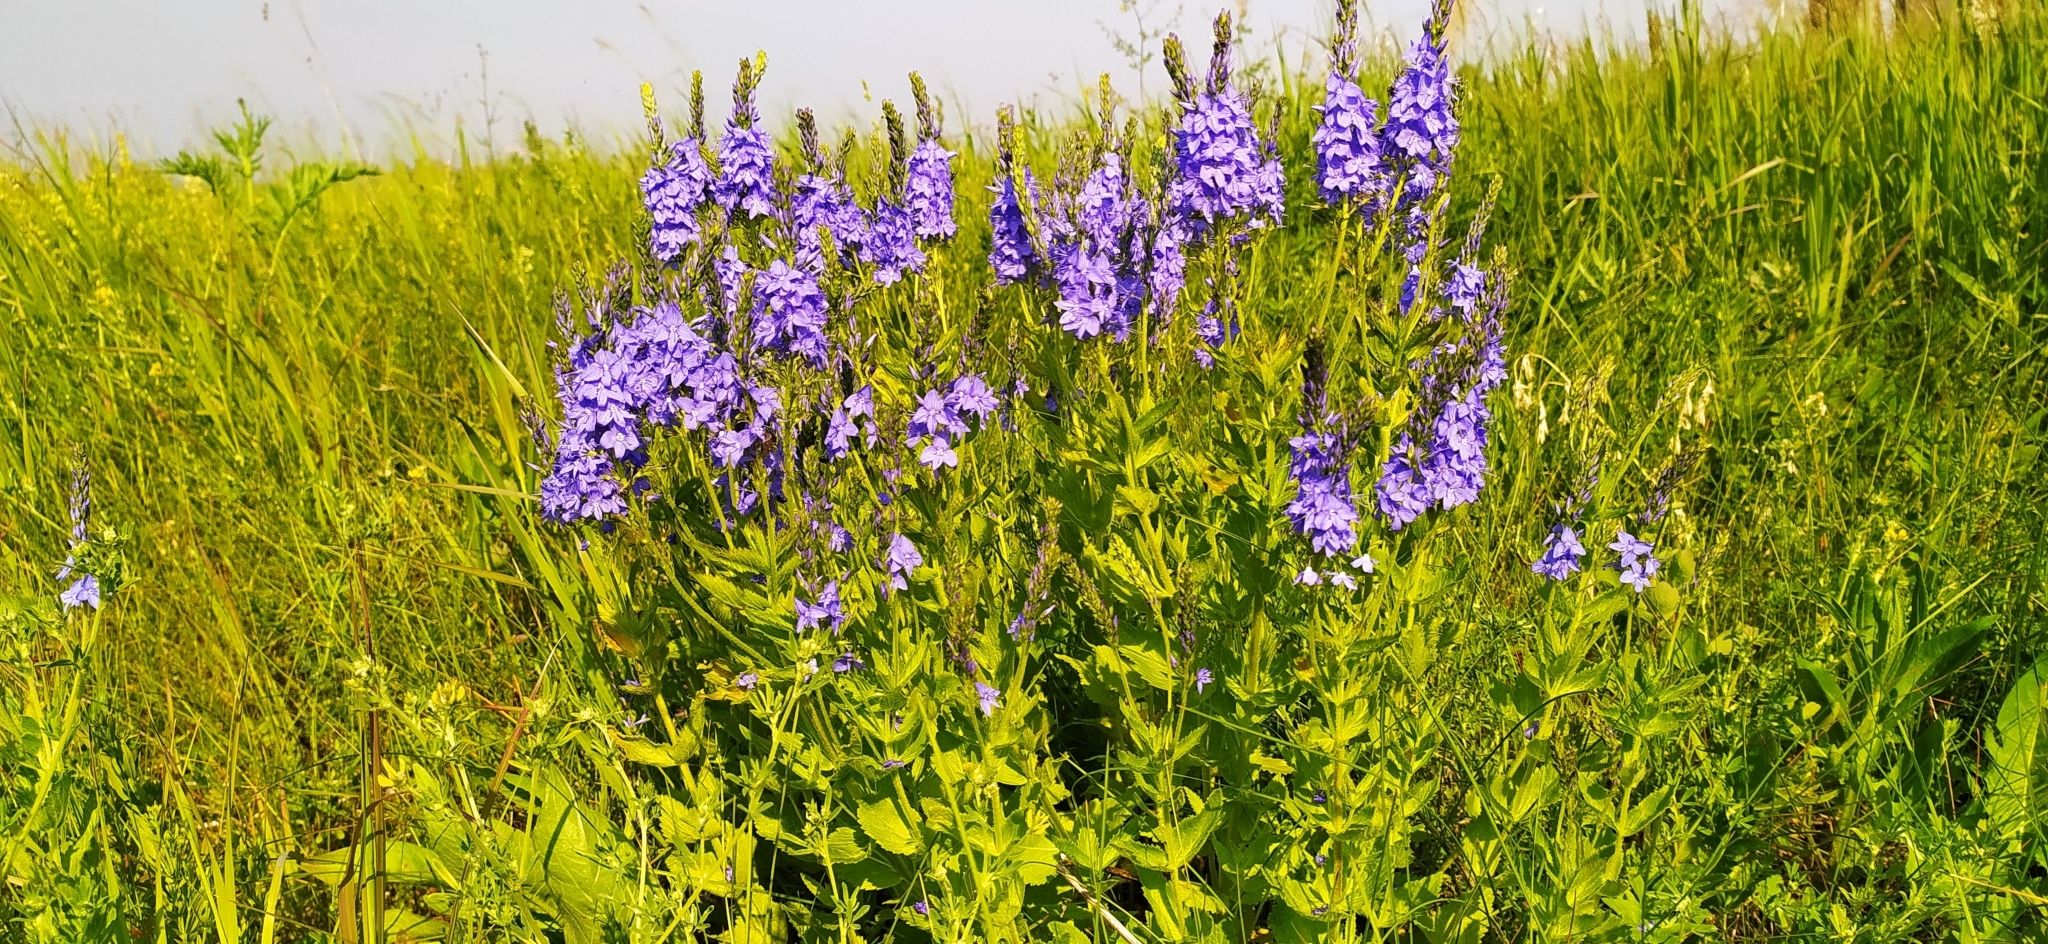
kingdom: Plantae
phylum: Tracheophyta
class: Magnoliopsida
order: Lamiales
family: Plantaginaceae
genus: Veronica
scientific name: Veronica teucrium
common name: Large speedwell
